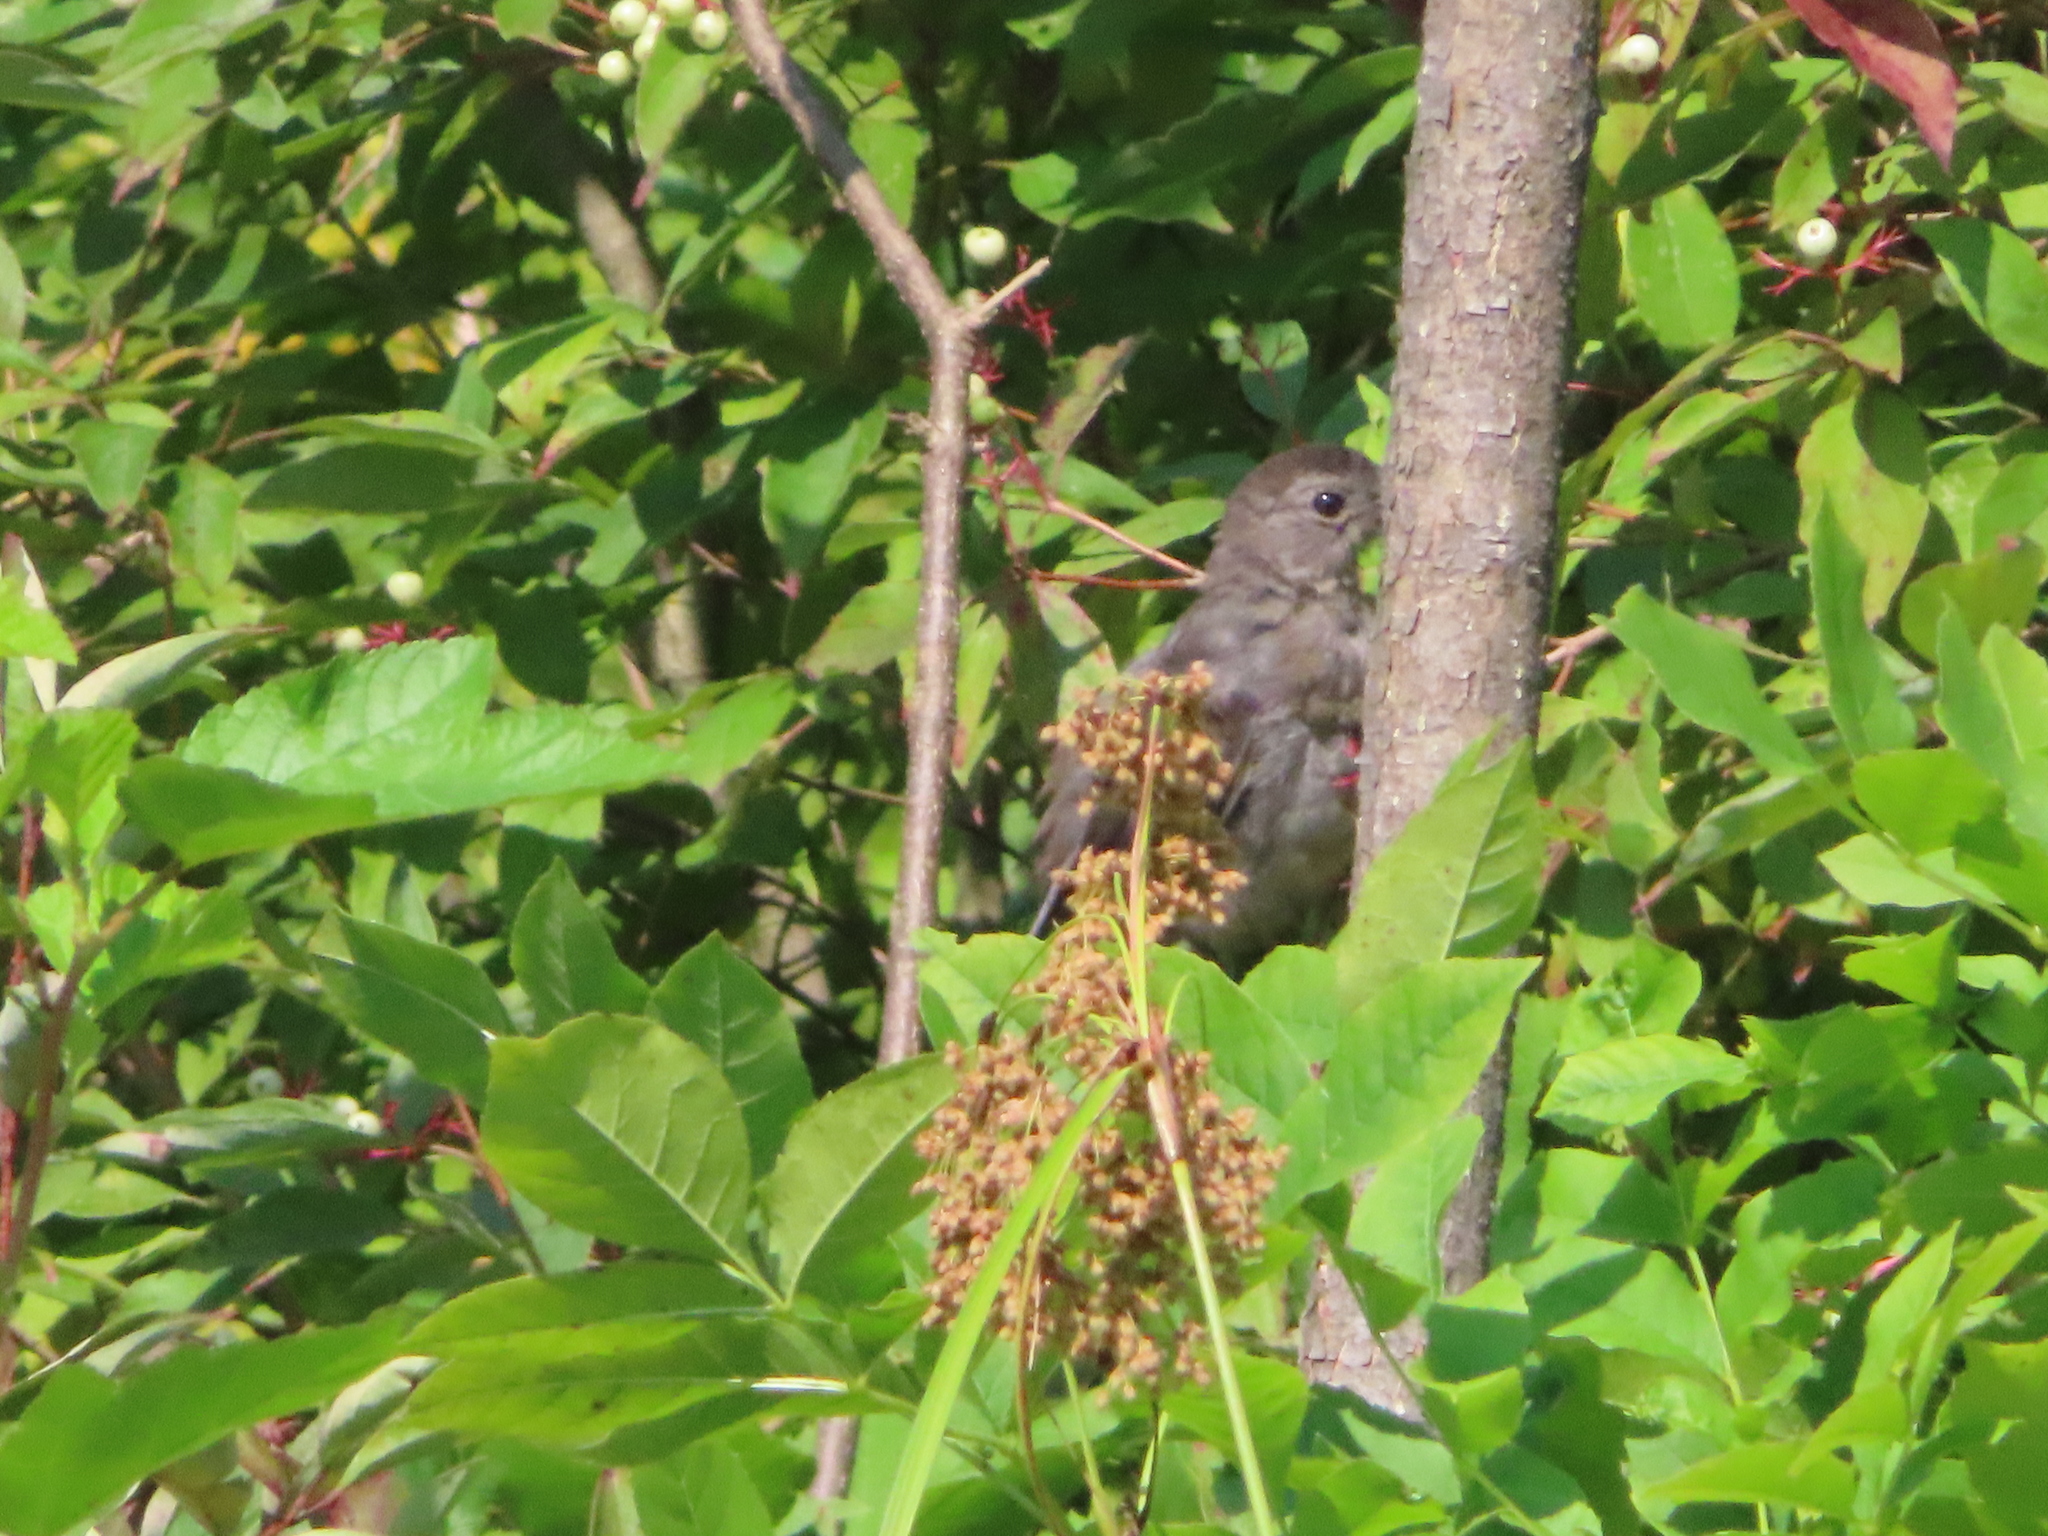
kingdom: Animalia
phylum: Chordata
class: Aves
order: Passeriformes
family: Mimidae
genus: Dumetella
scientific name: Dumetella carolinensis
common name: Gray catbird
